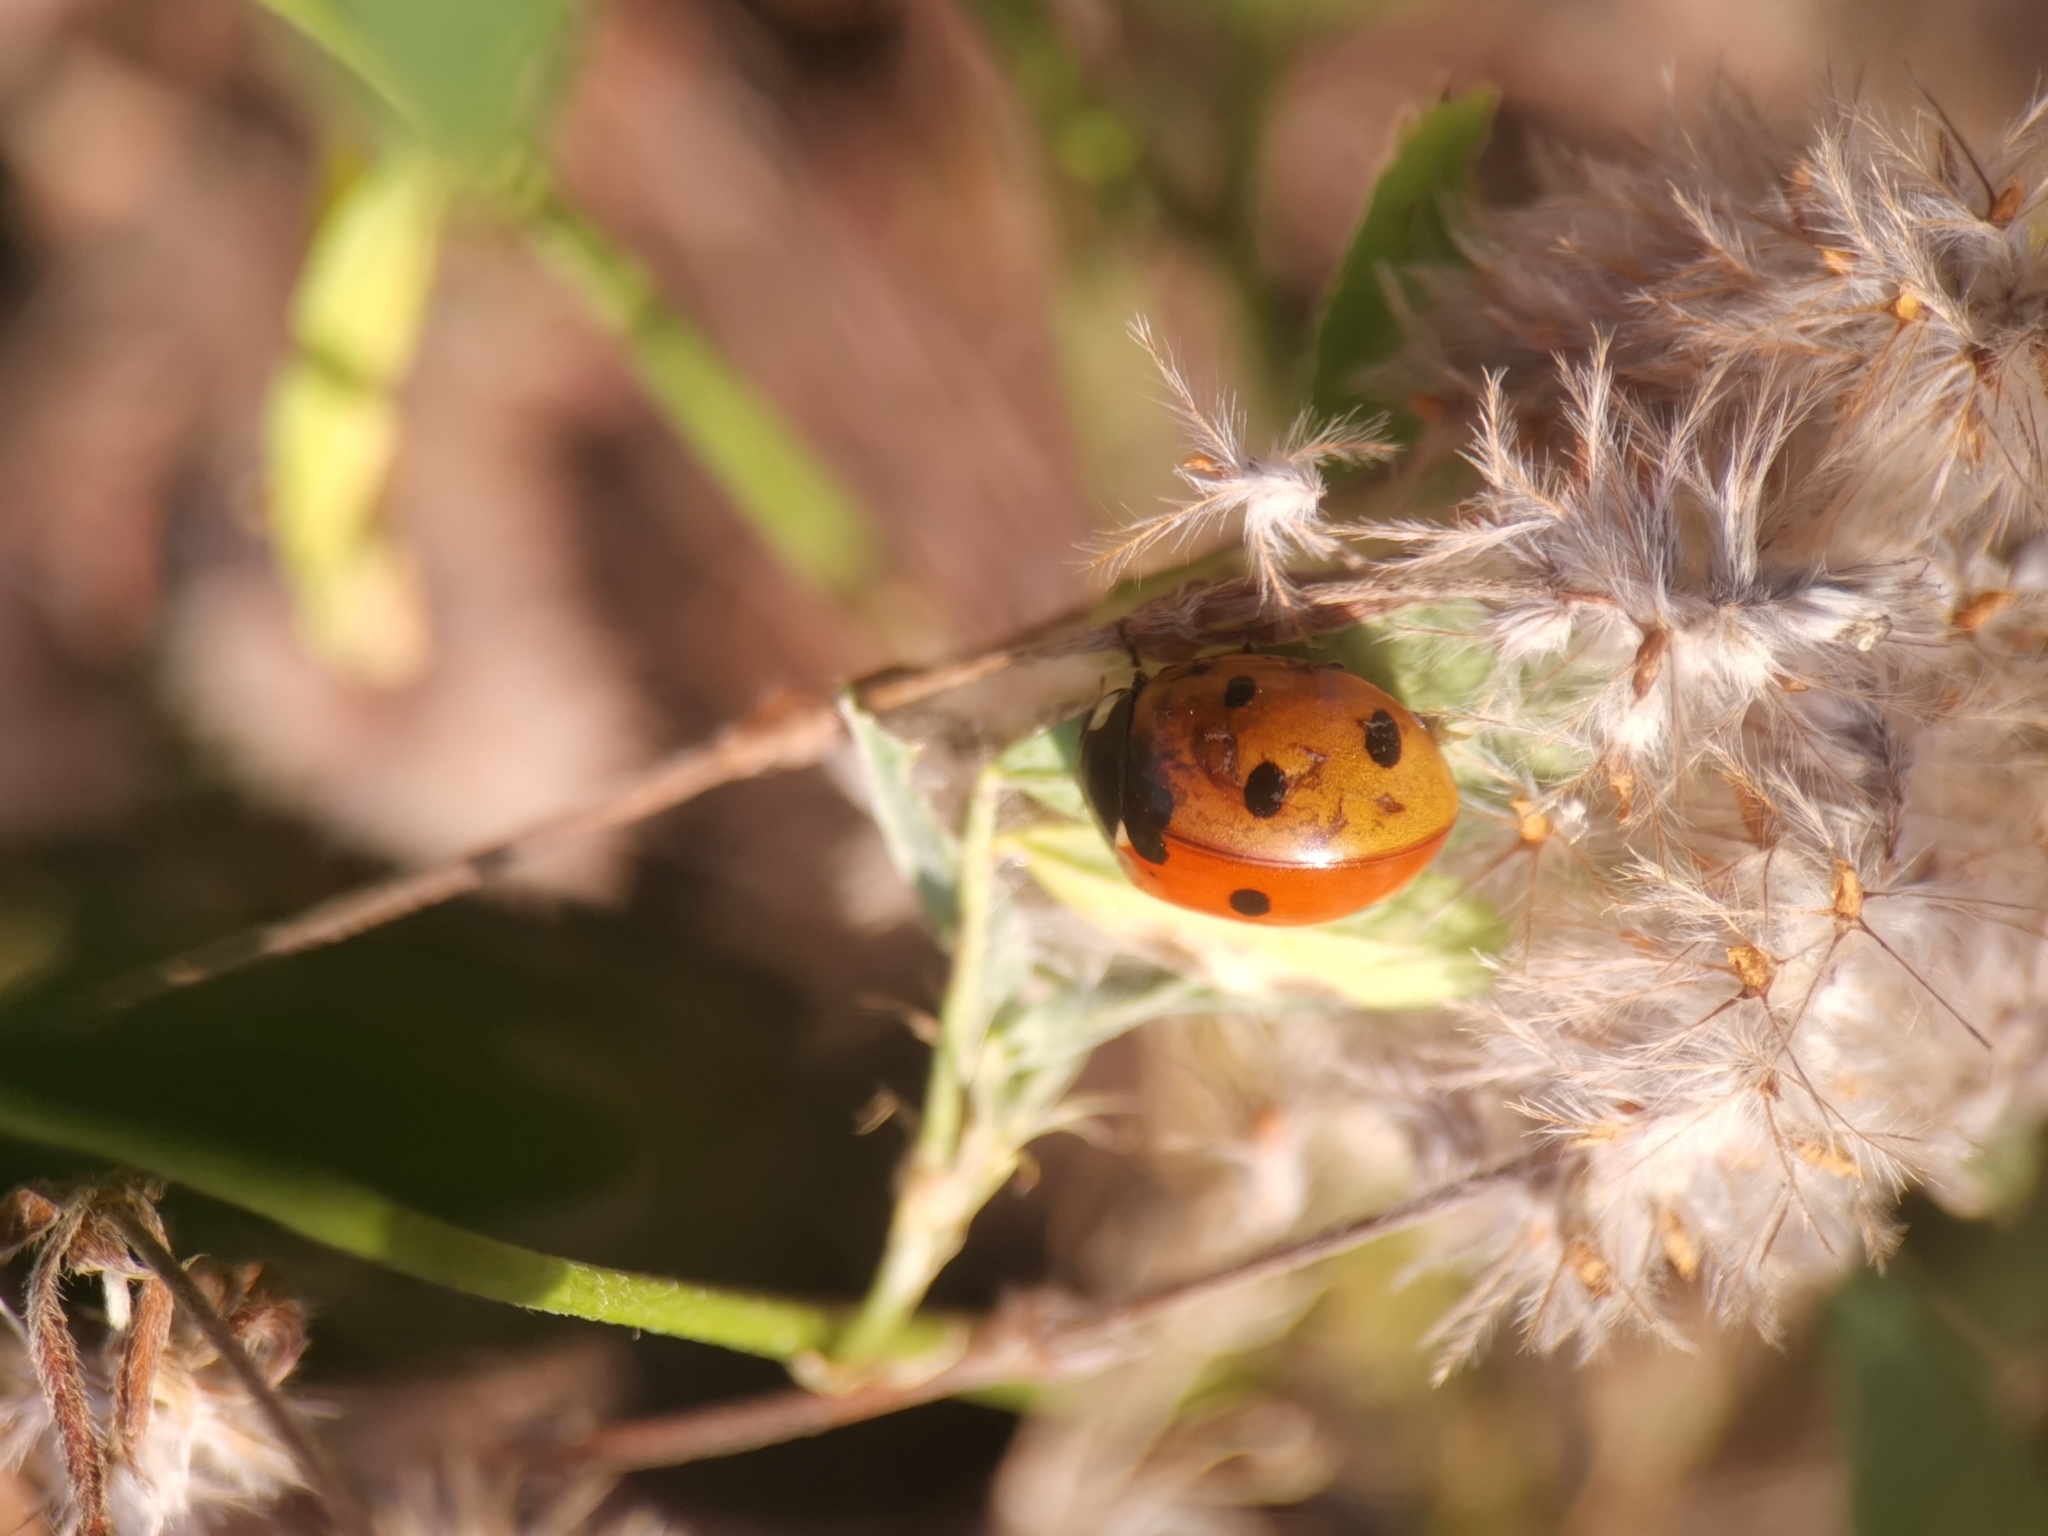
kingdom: Animalia
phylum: Arthropoda
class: Insecta
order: Coleoptera
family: Coccinellidae
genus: Coccinella
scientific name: Coccinella septempunctata
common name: Sevenspotted lady beetle
